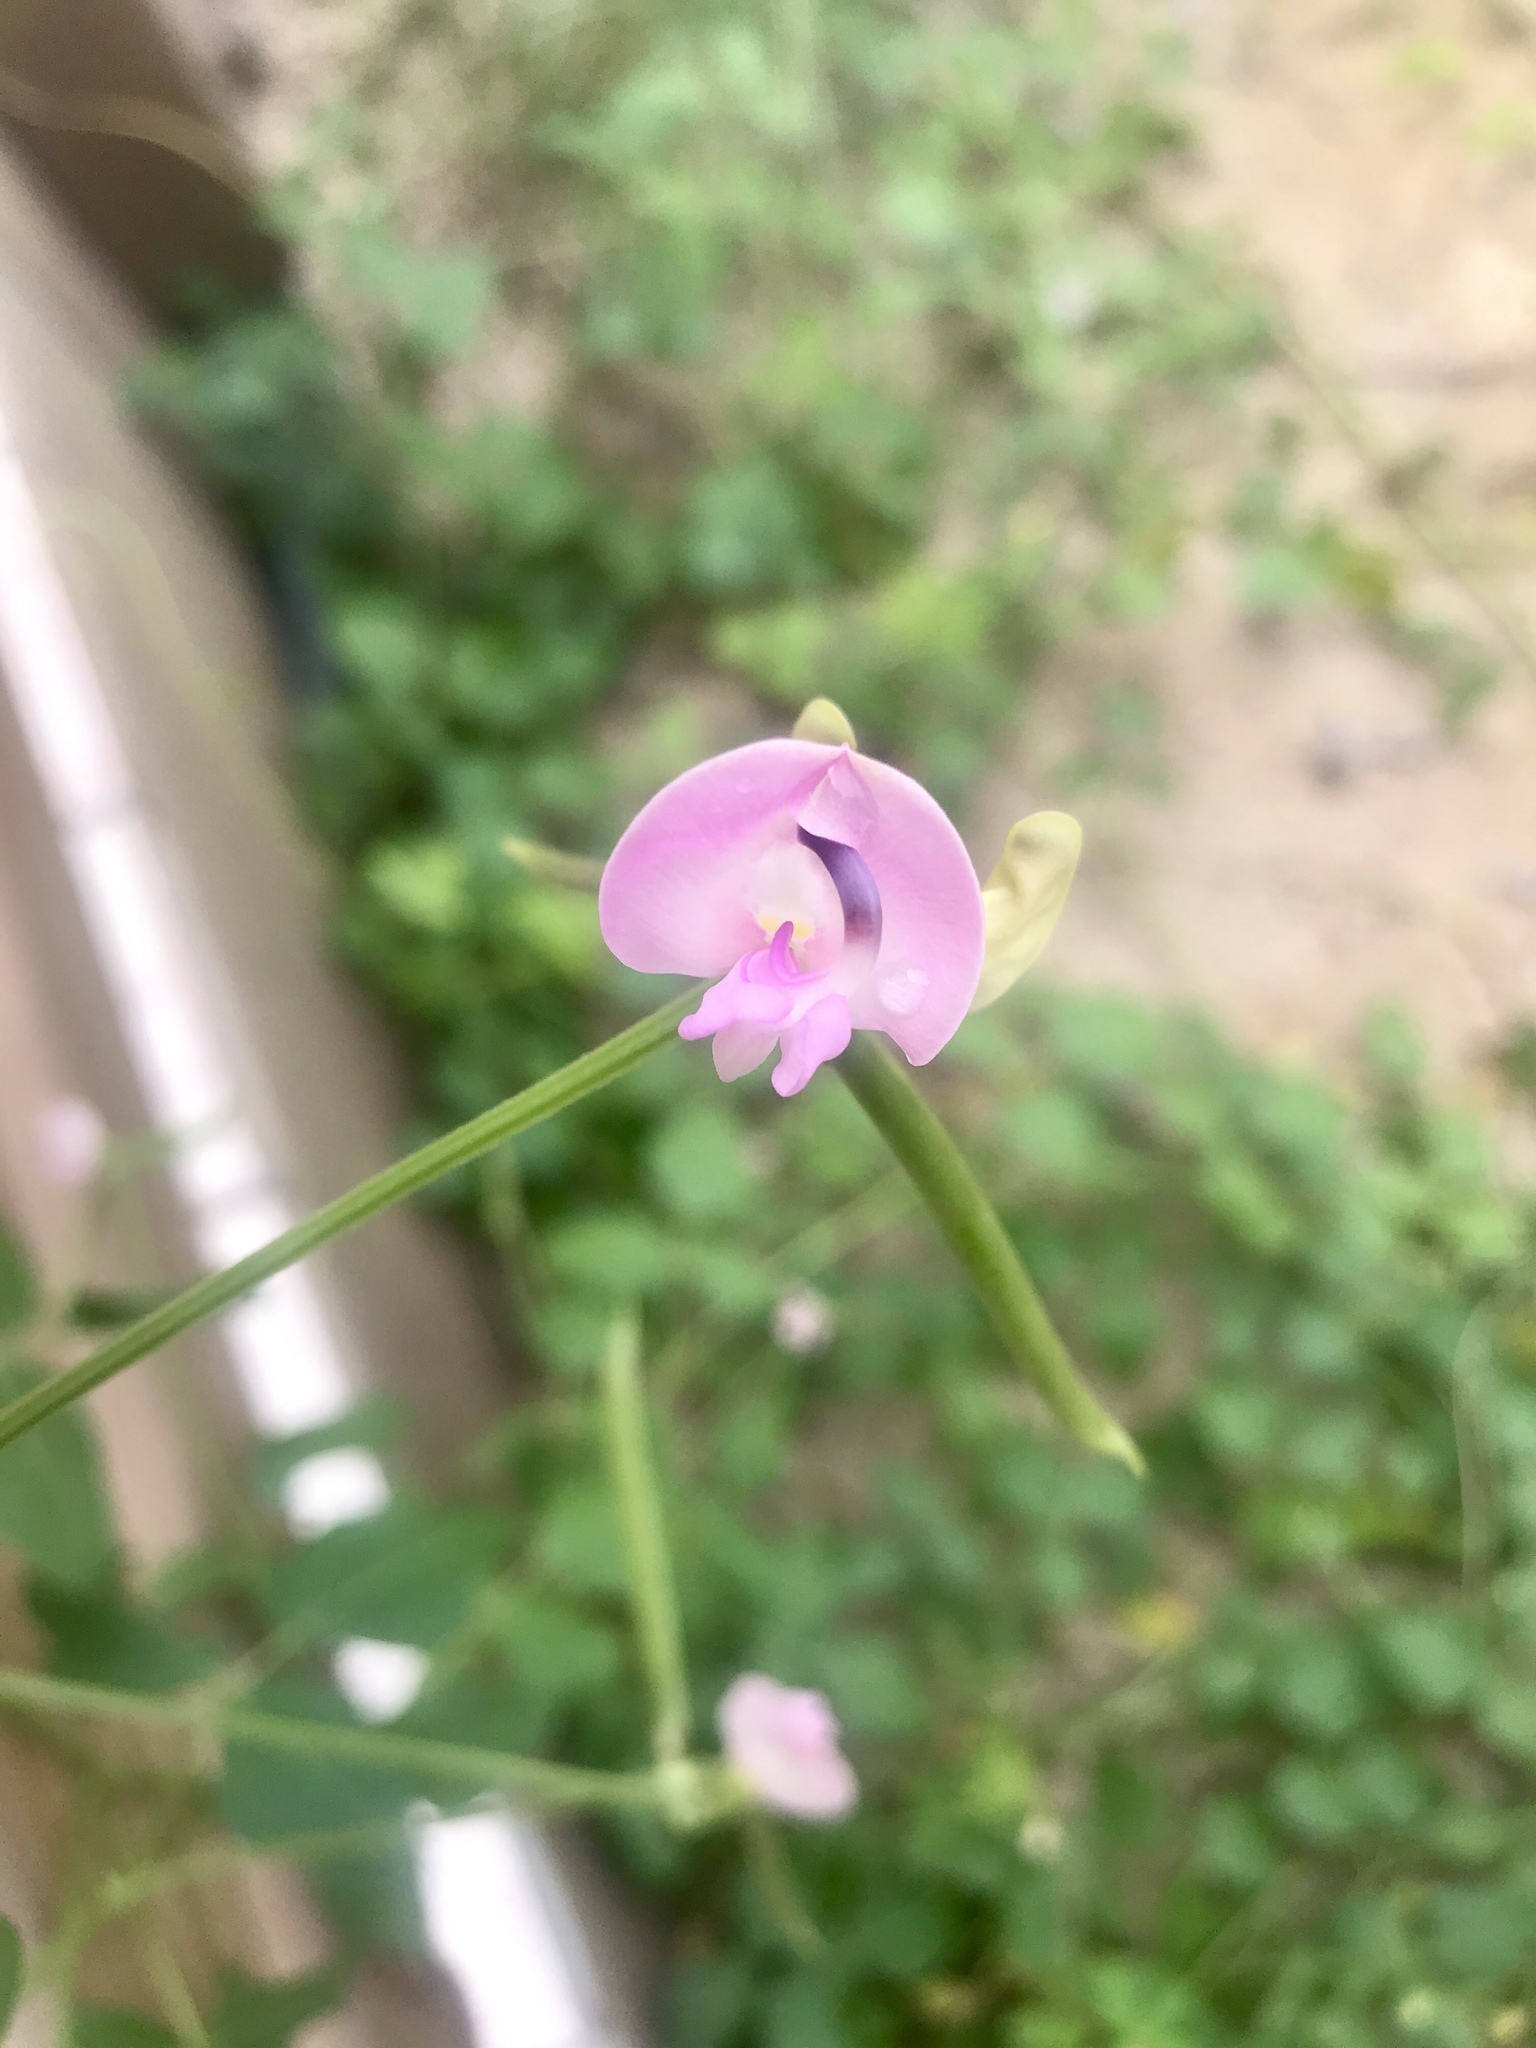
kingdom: Plantae
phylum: Tracheophyta
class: Magnoliopsida
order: Fabales
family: Fabaceae
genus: Strophostyles
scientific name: Strophostyles helvola
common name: Trailing wild bean
